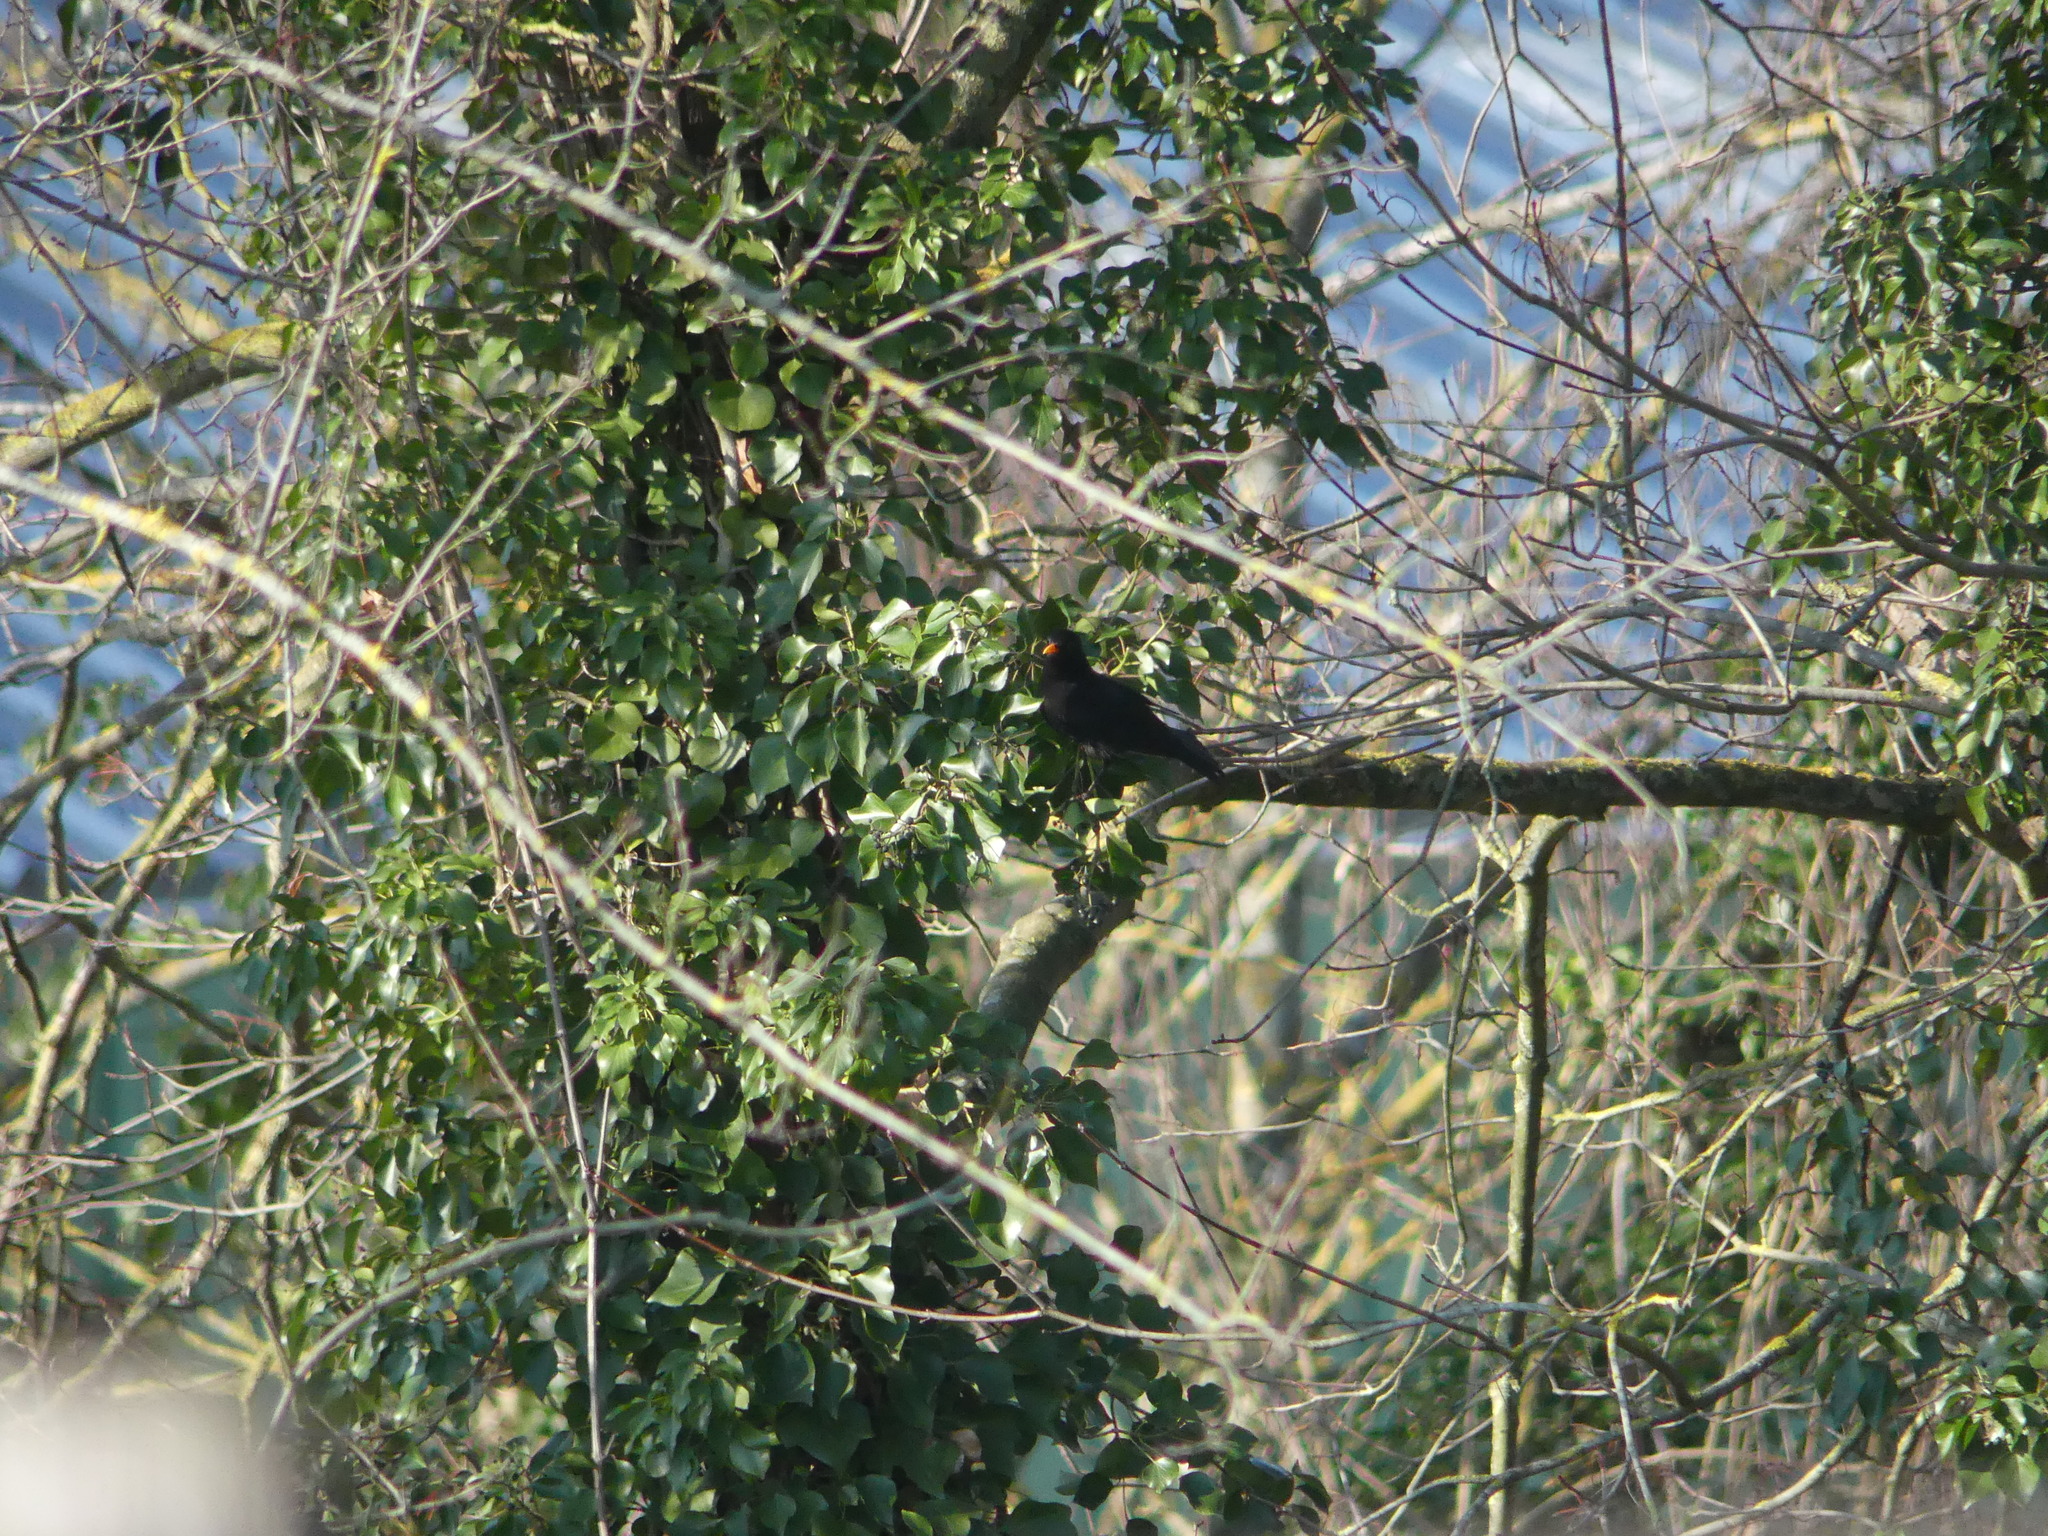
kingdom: Animalia
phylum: Chordata
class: Aves
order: Passeriformes
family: Turdidae
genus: Turdus
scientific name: Turdus merula
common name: Common blackbird
